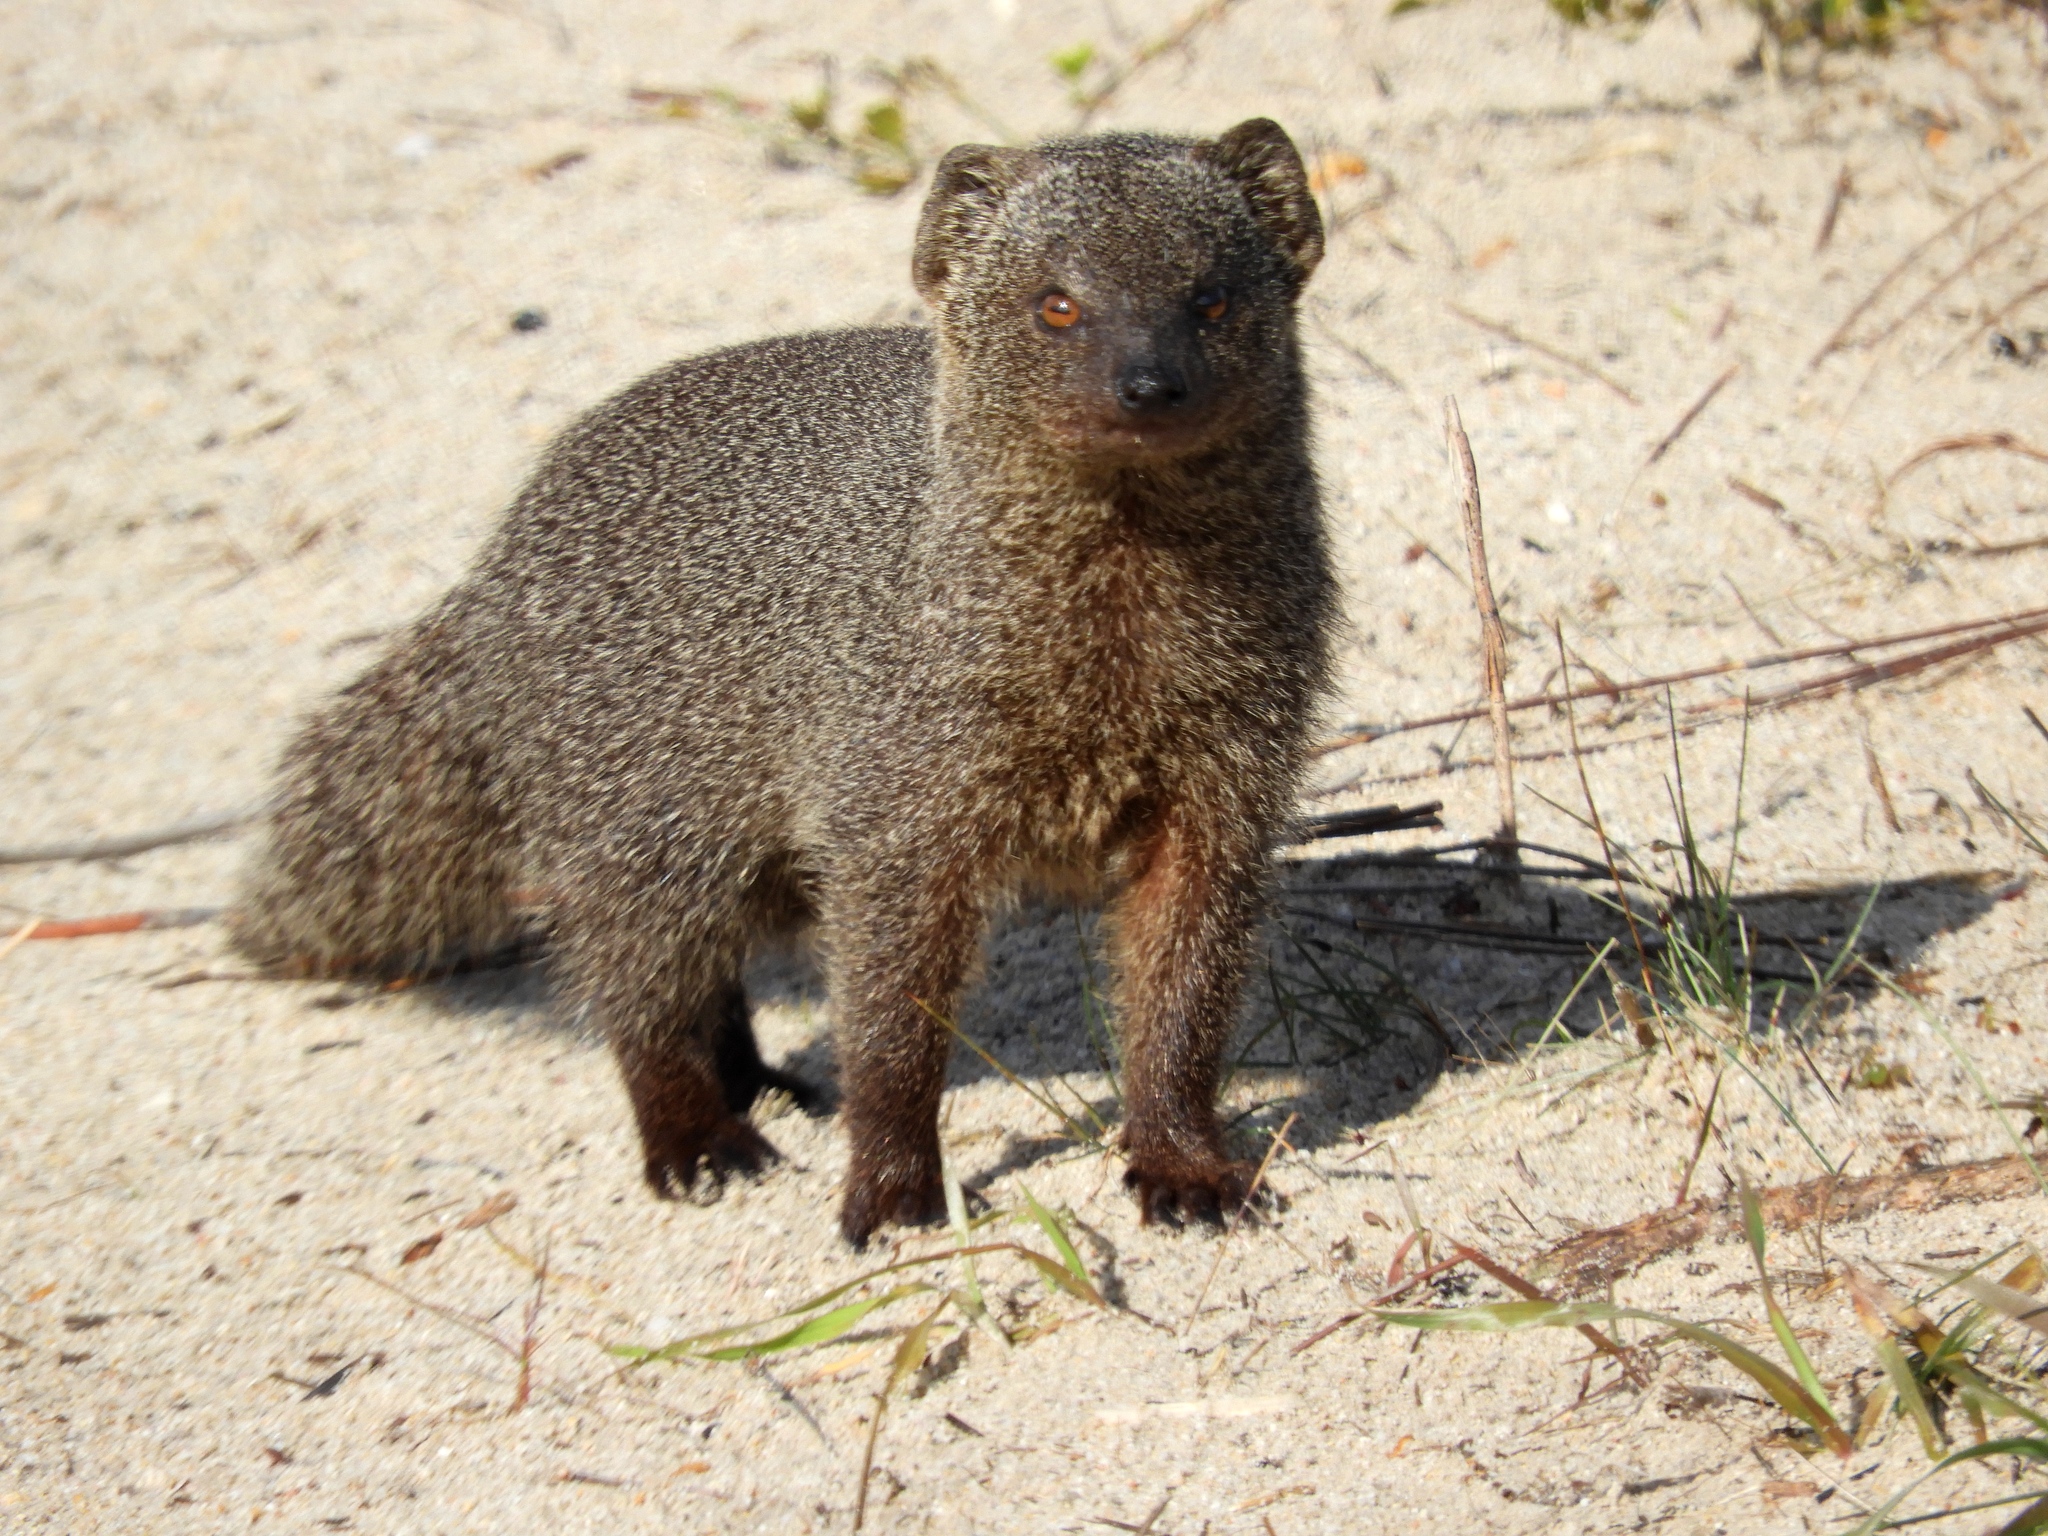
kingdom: Animalia
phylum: Chordata
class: Mammalia
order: Carnivora
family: Herpestidae
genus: Galerella
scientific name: Galerella pulverulenta
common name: Cape gray mongoose
